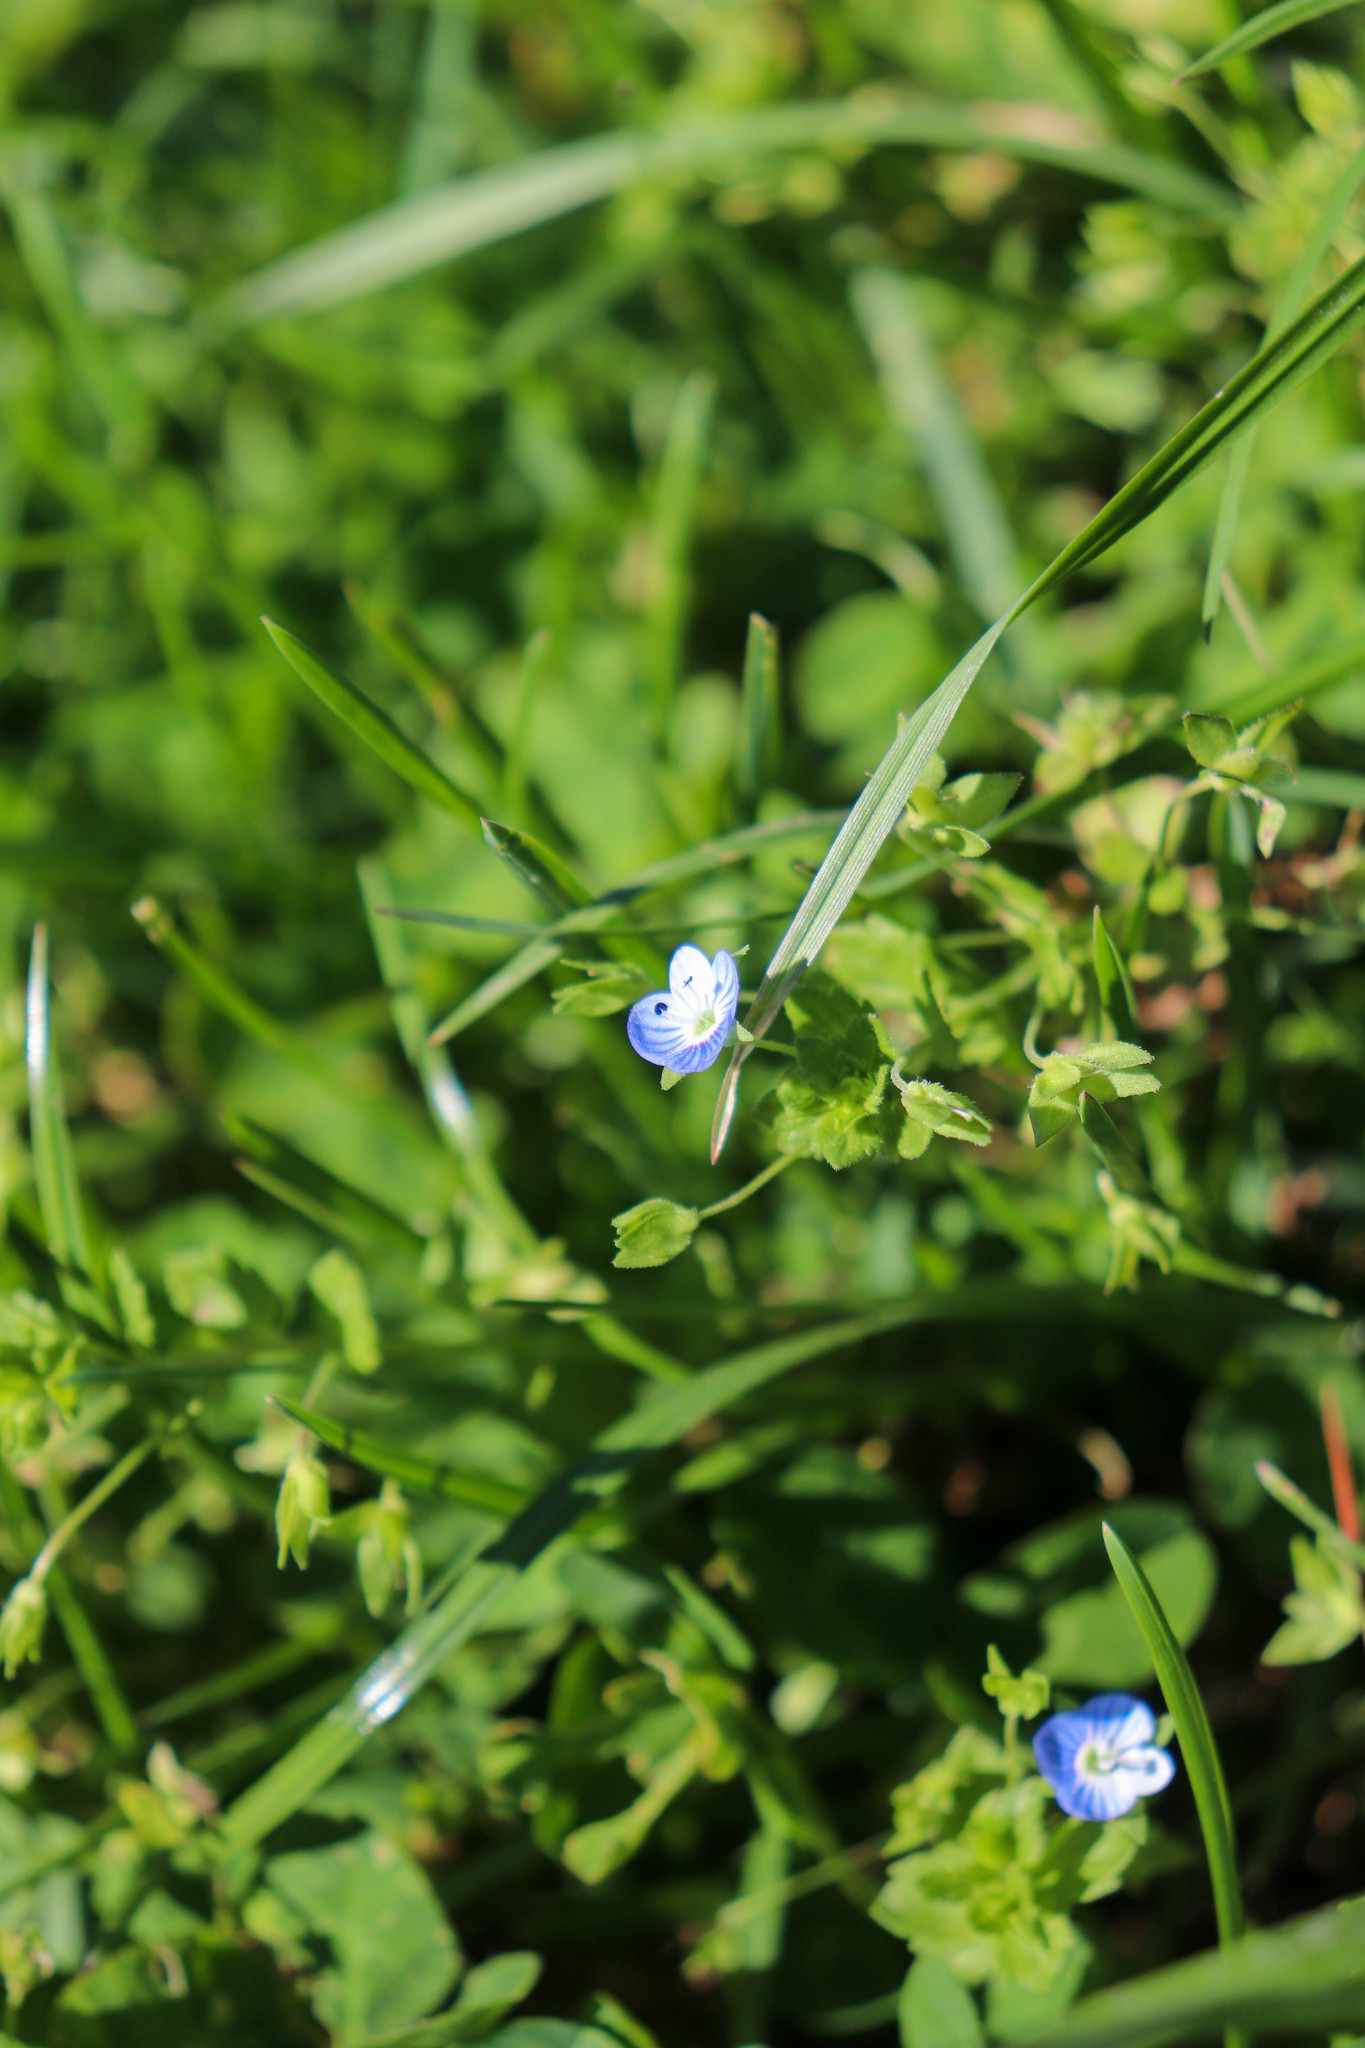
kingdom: Plantae
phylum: Tracheophyta
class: Magnoliopsida
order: Lamiales
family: Plantaginaceae
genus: Veronica
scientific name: Veronica persica
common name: Common field-speedwell
